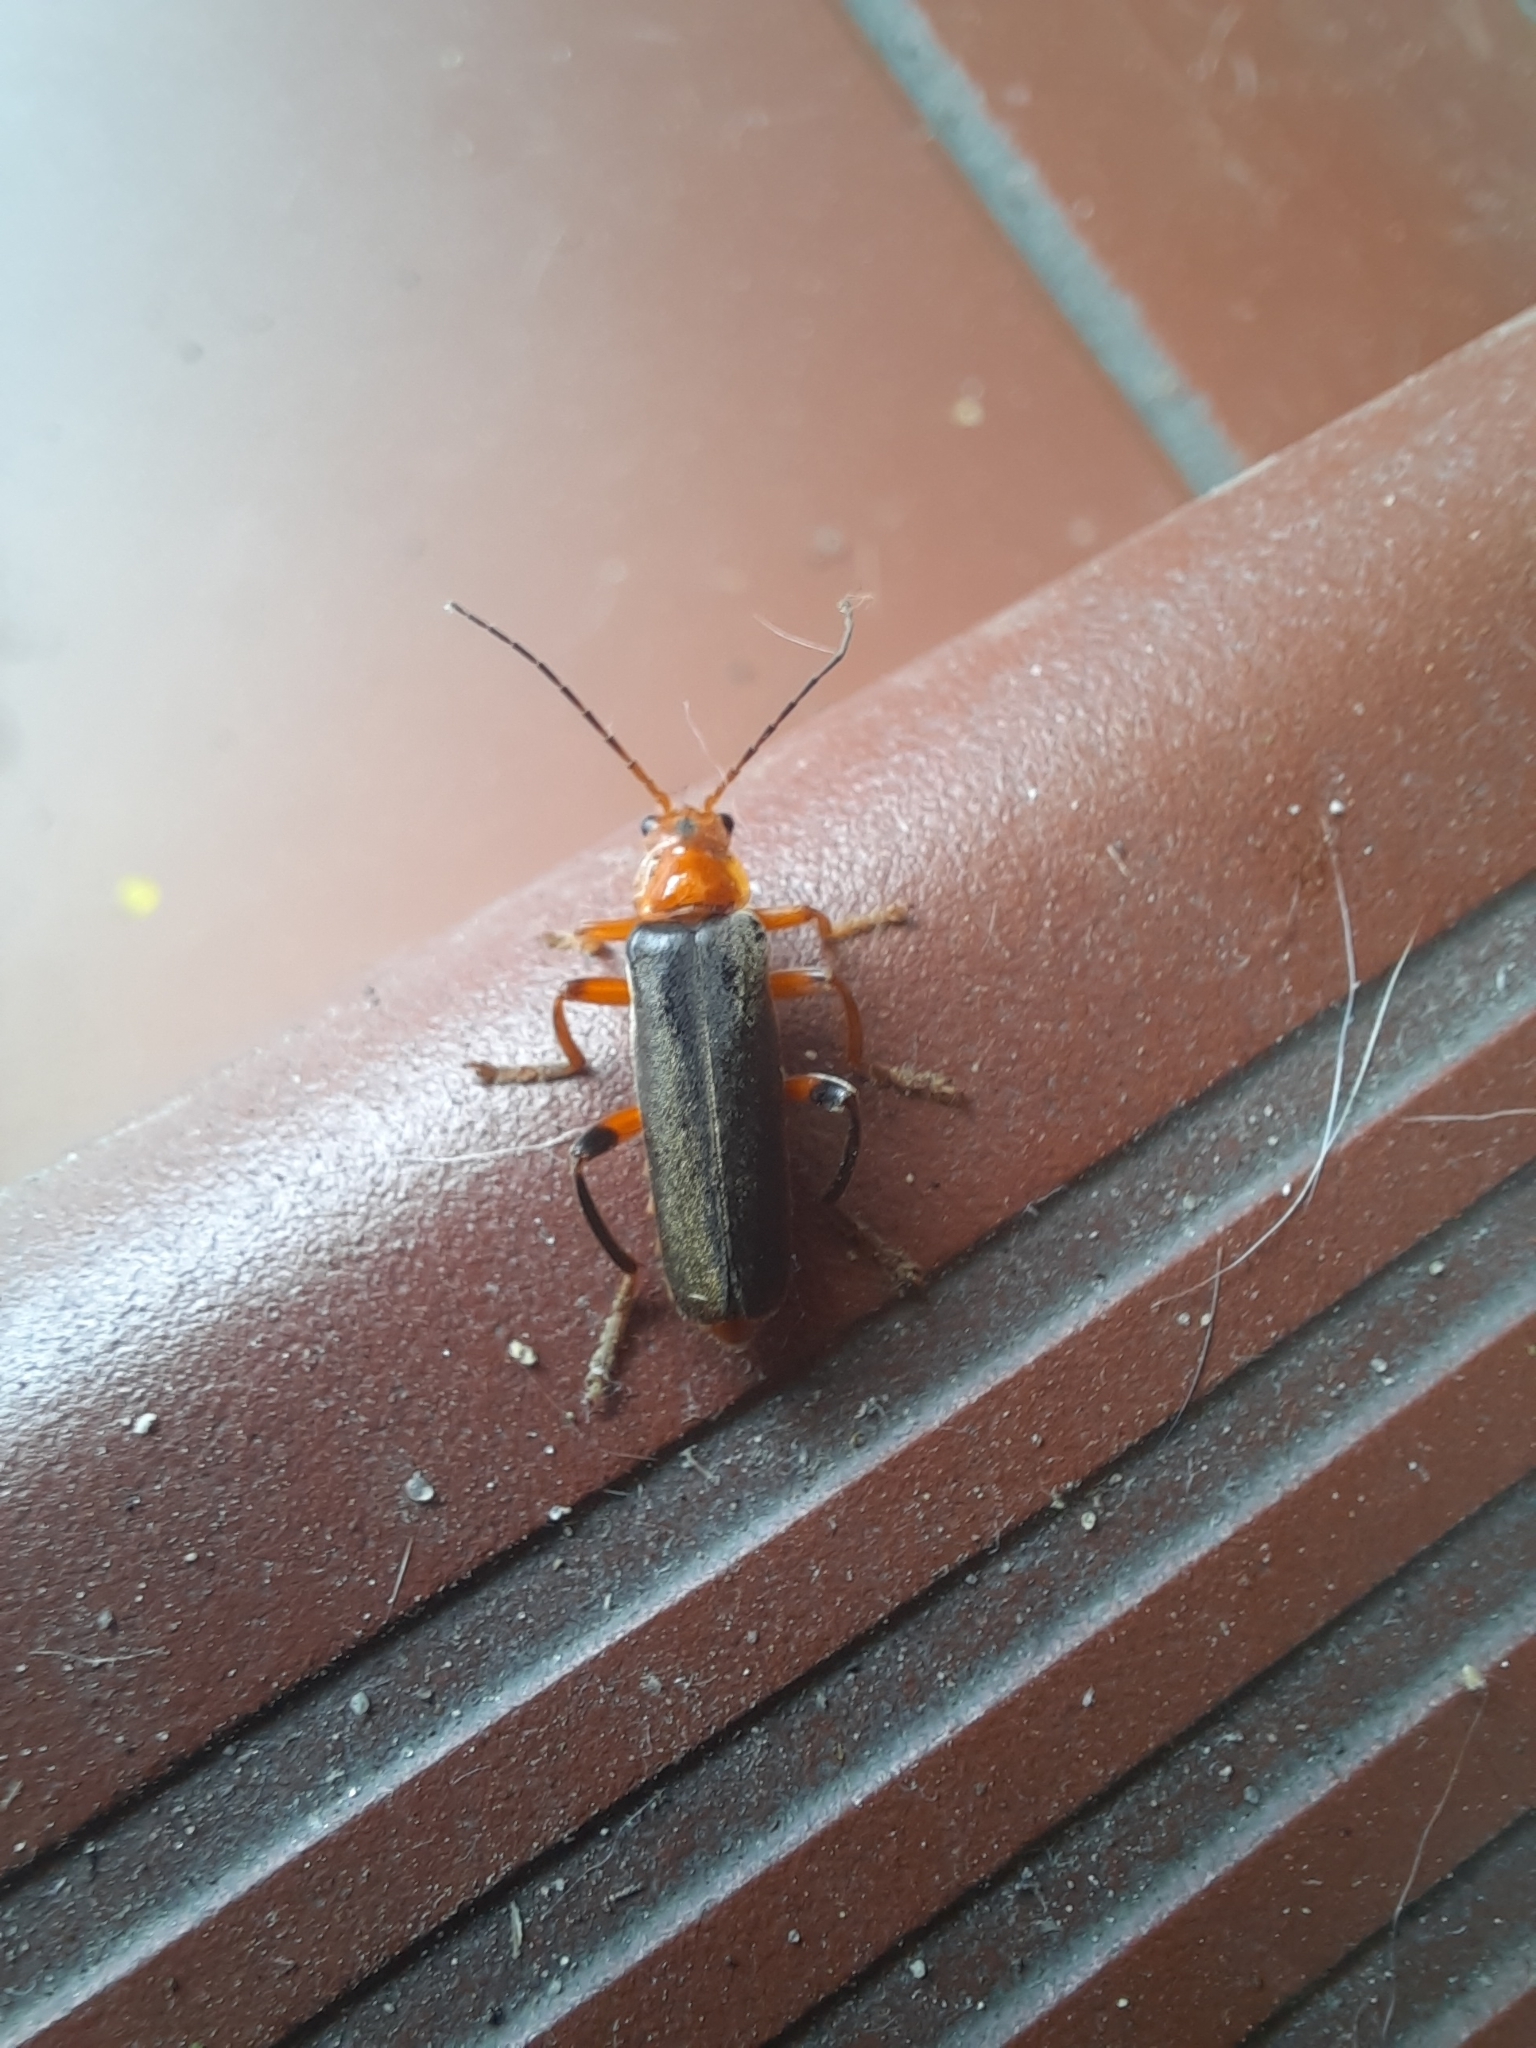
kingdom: Animalia
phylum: Arthropoda
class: Insecta
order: Coleoptera
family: Cantharidae
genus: Cantharis
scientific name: Cantharis livida
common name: Livid soldier beetle
